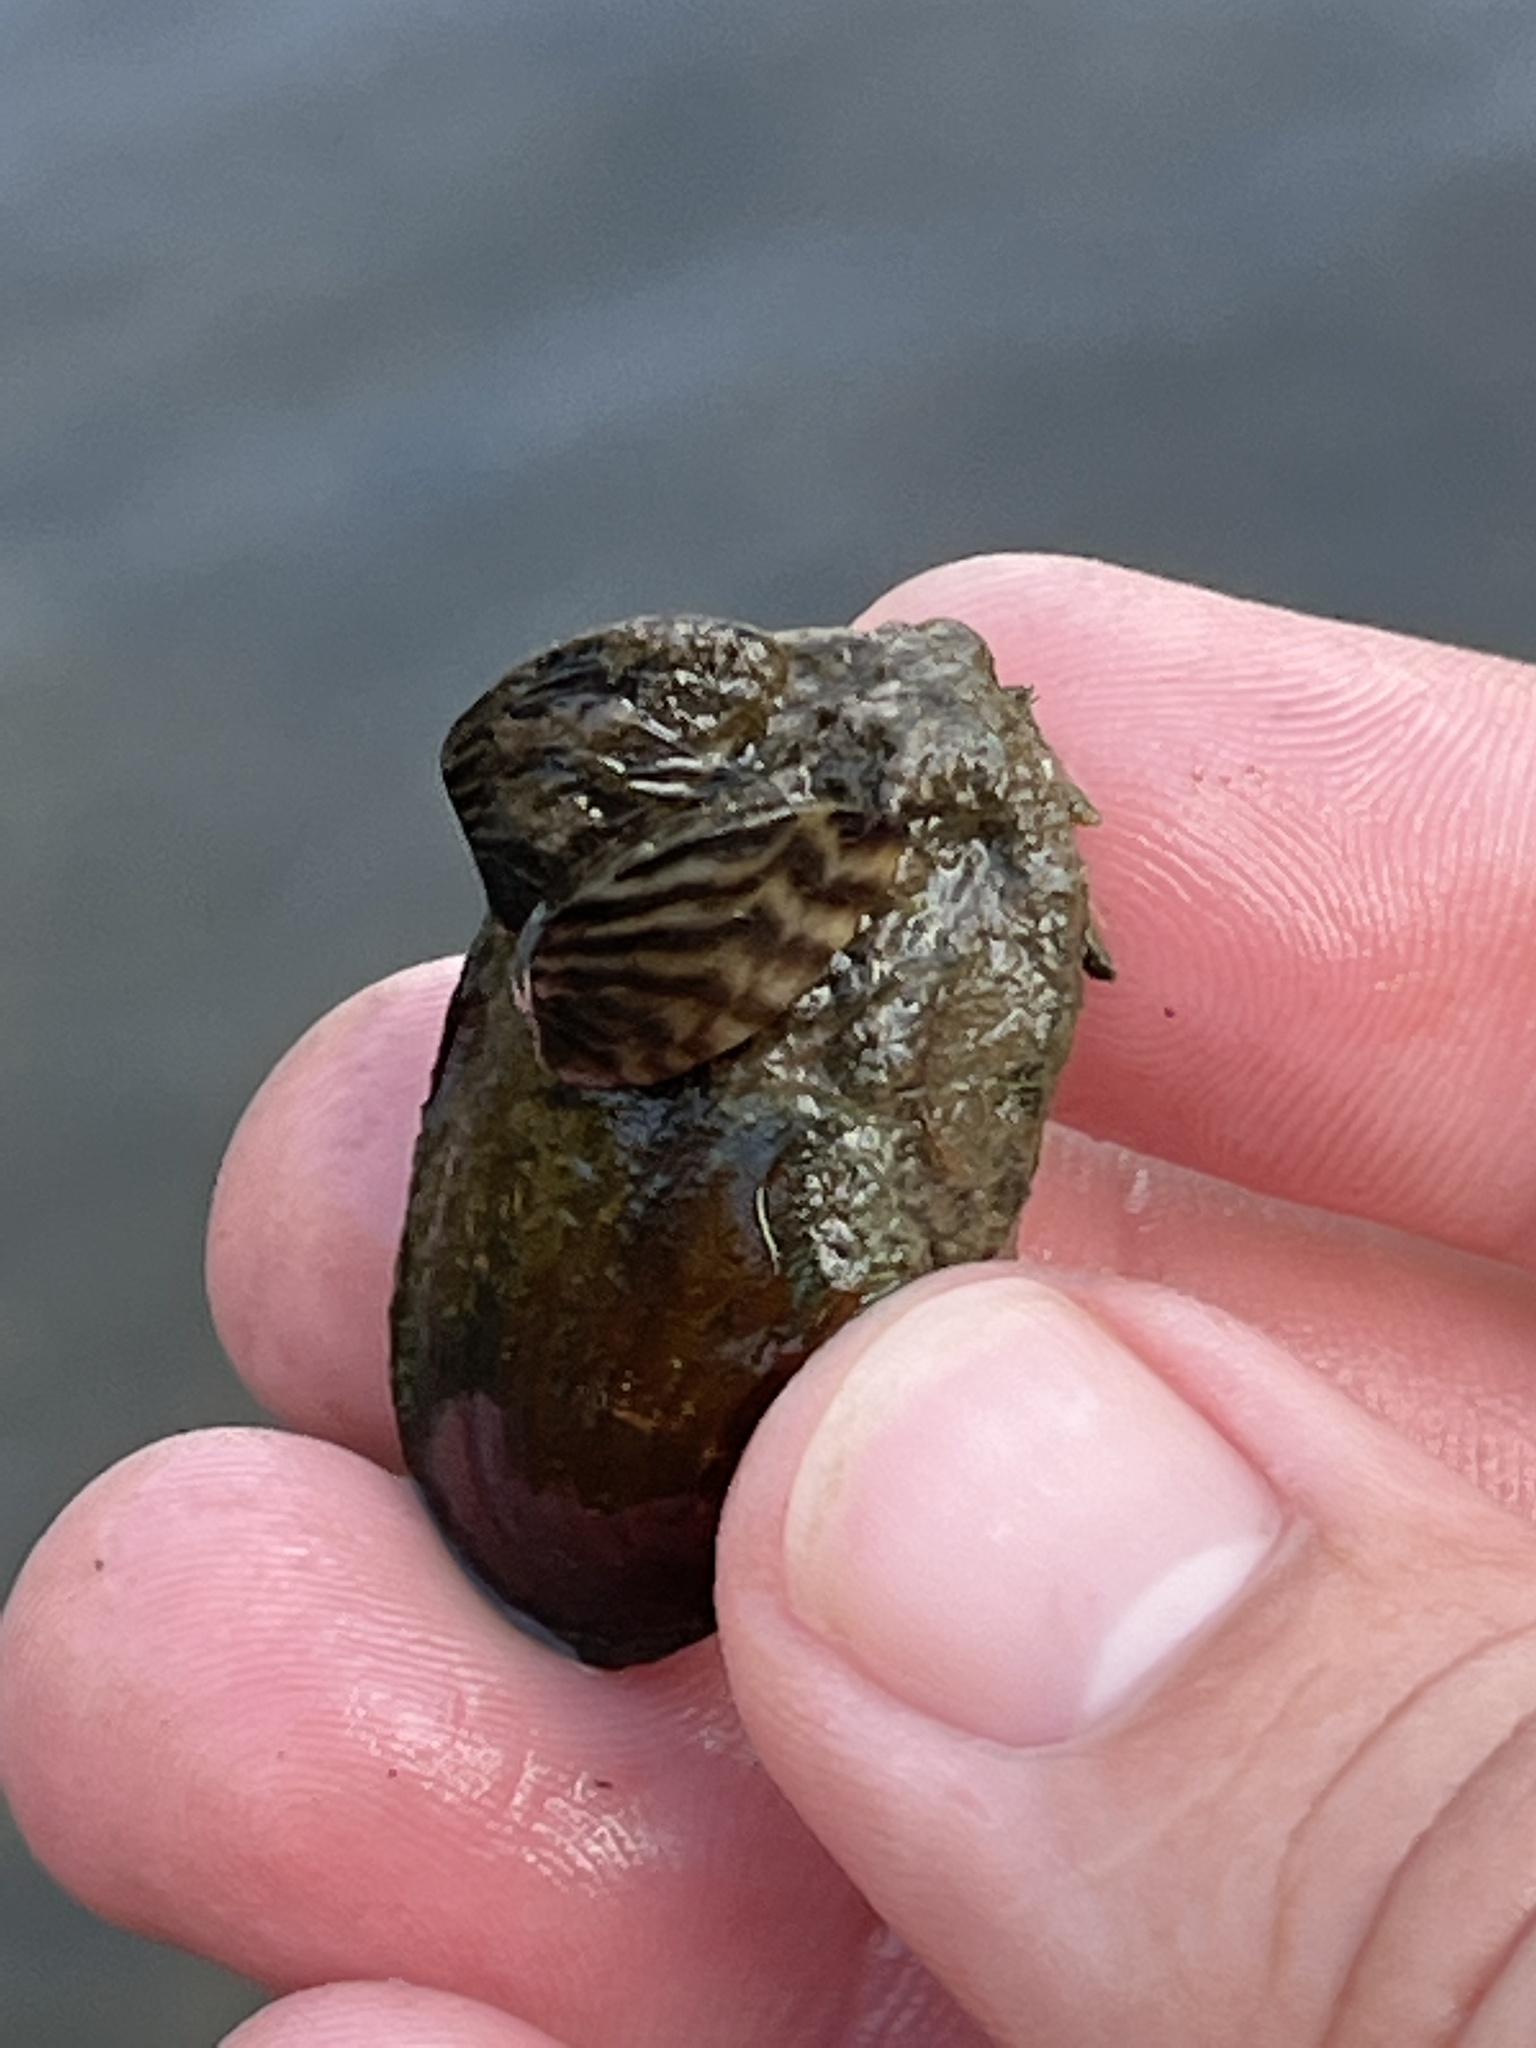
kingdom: Animalia
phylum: Mollusca
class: Bivalvia
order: Unionida
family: Unionidae
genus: Toxolasma
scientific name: Toxolasma parvum
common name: Lilliput
